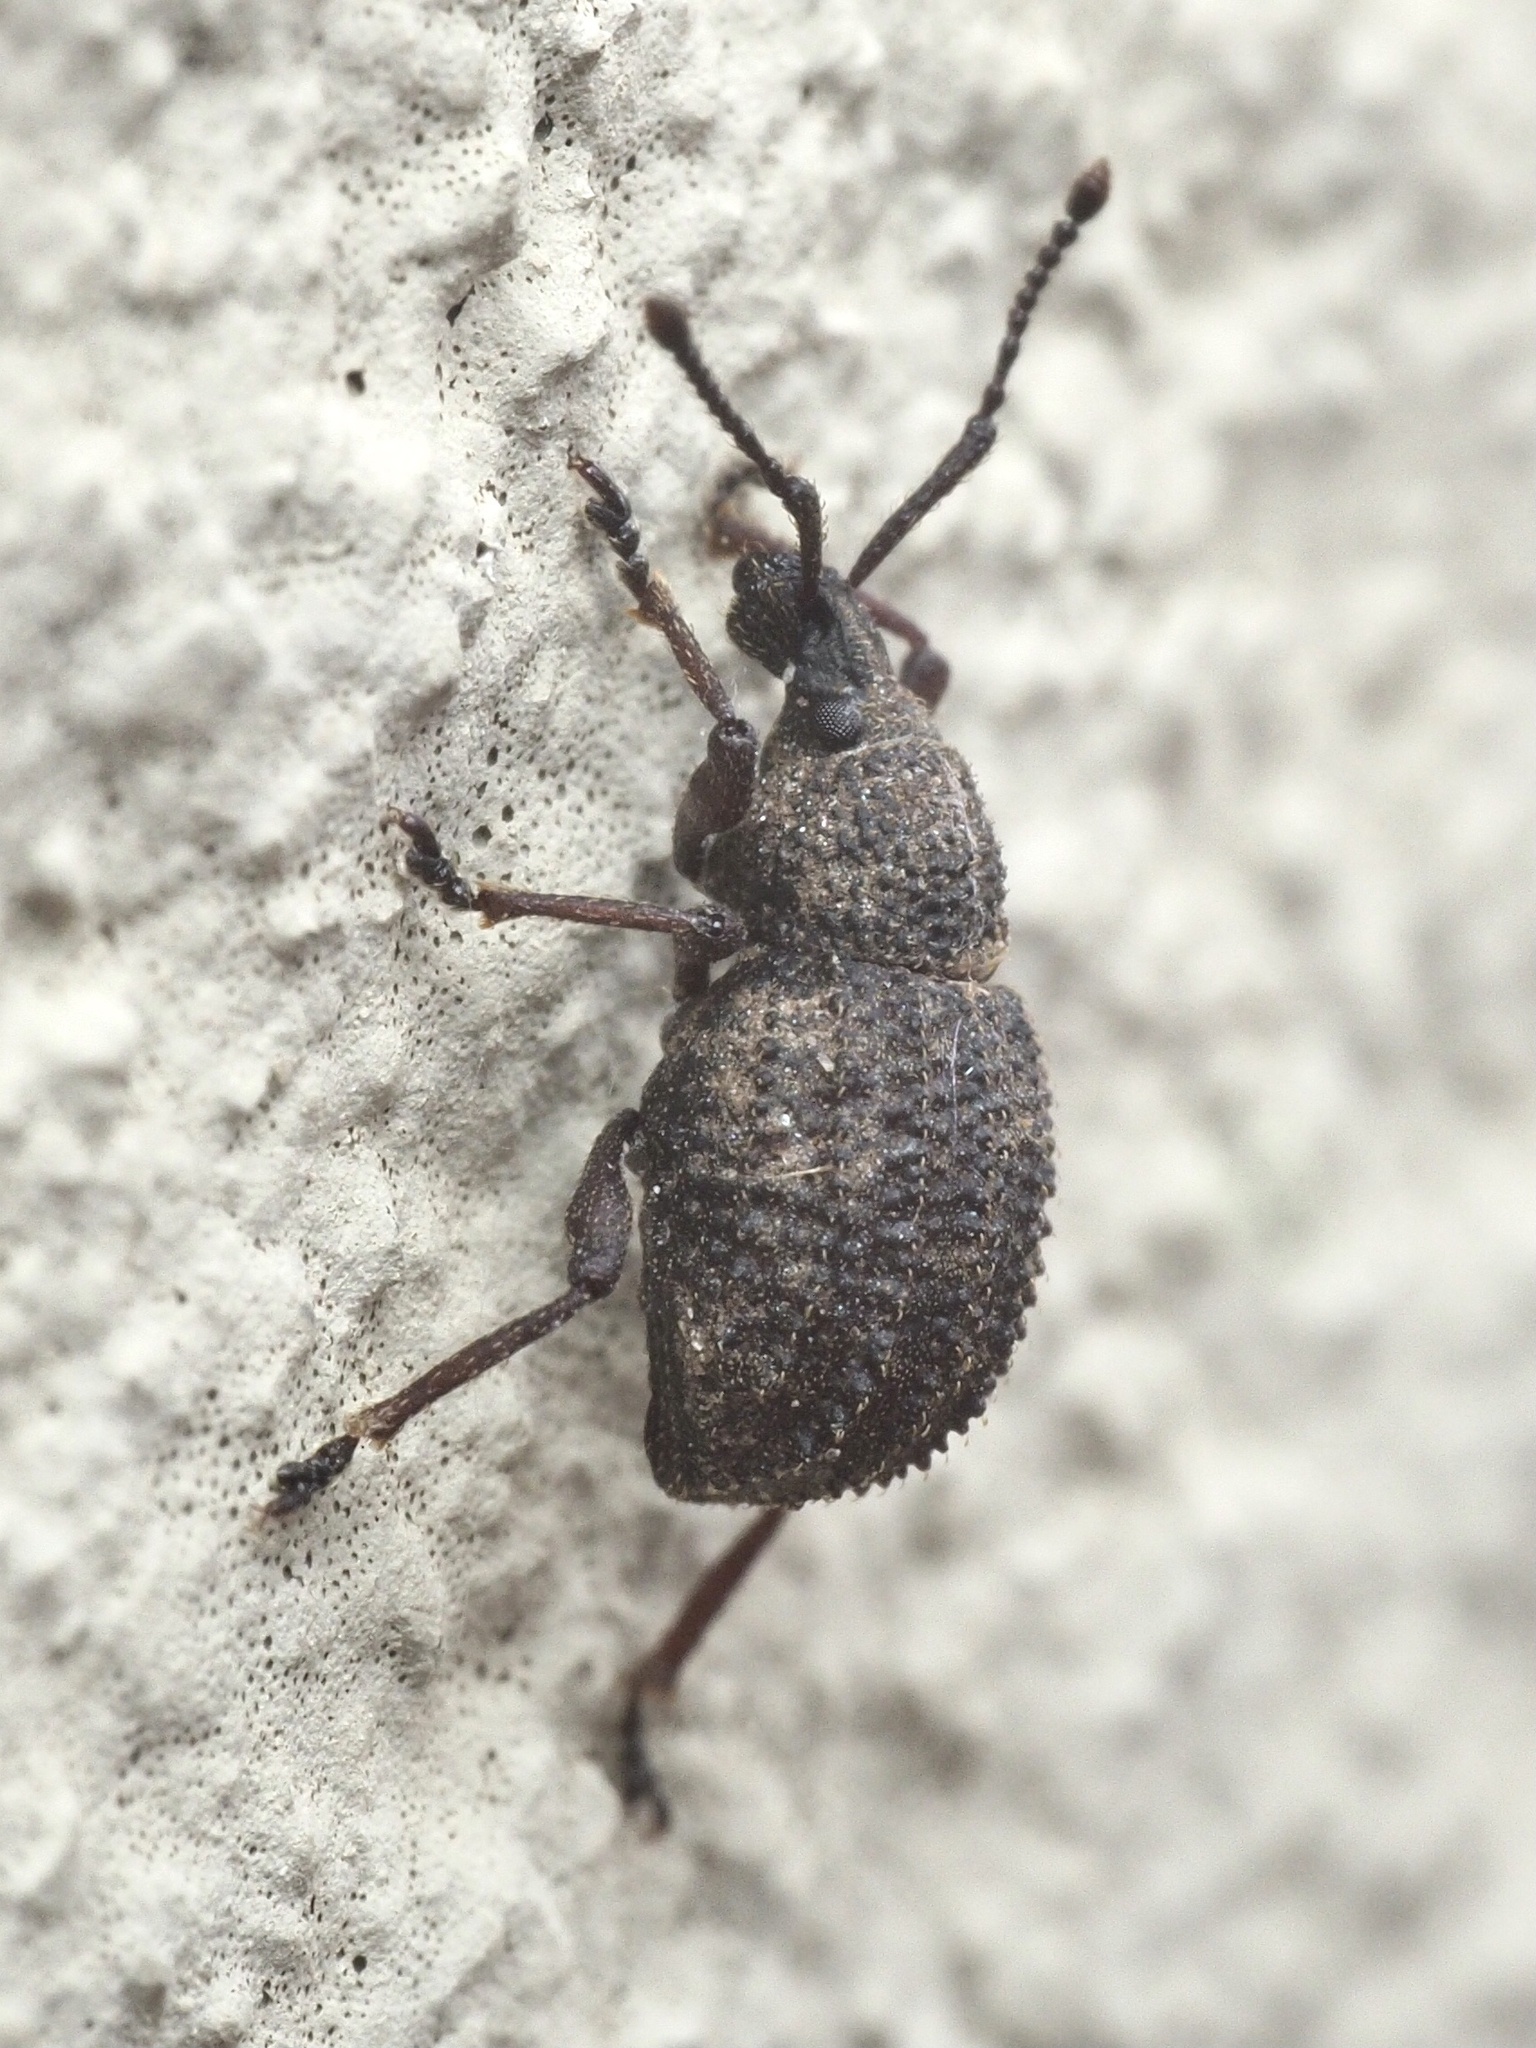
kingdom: Animalia
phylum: Arthropoda
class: Insecta
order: Coleoptera
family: Curculionidae
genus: Otiorhynchus
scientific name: Otiorhynchus porcatus
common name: Weevil
